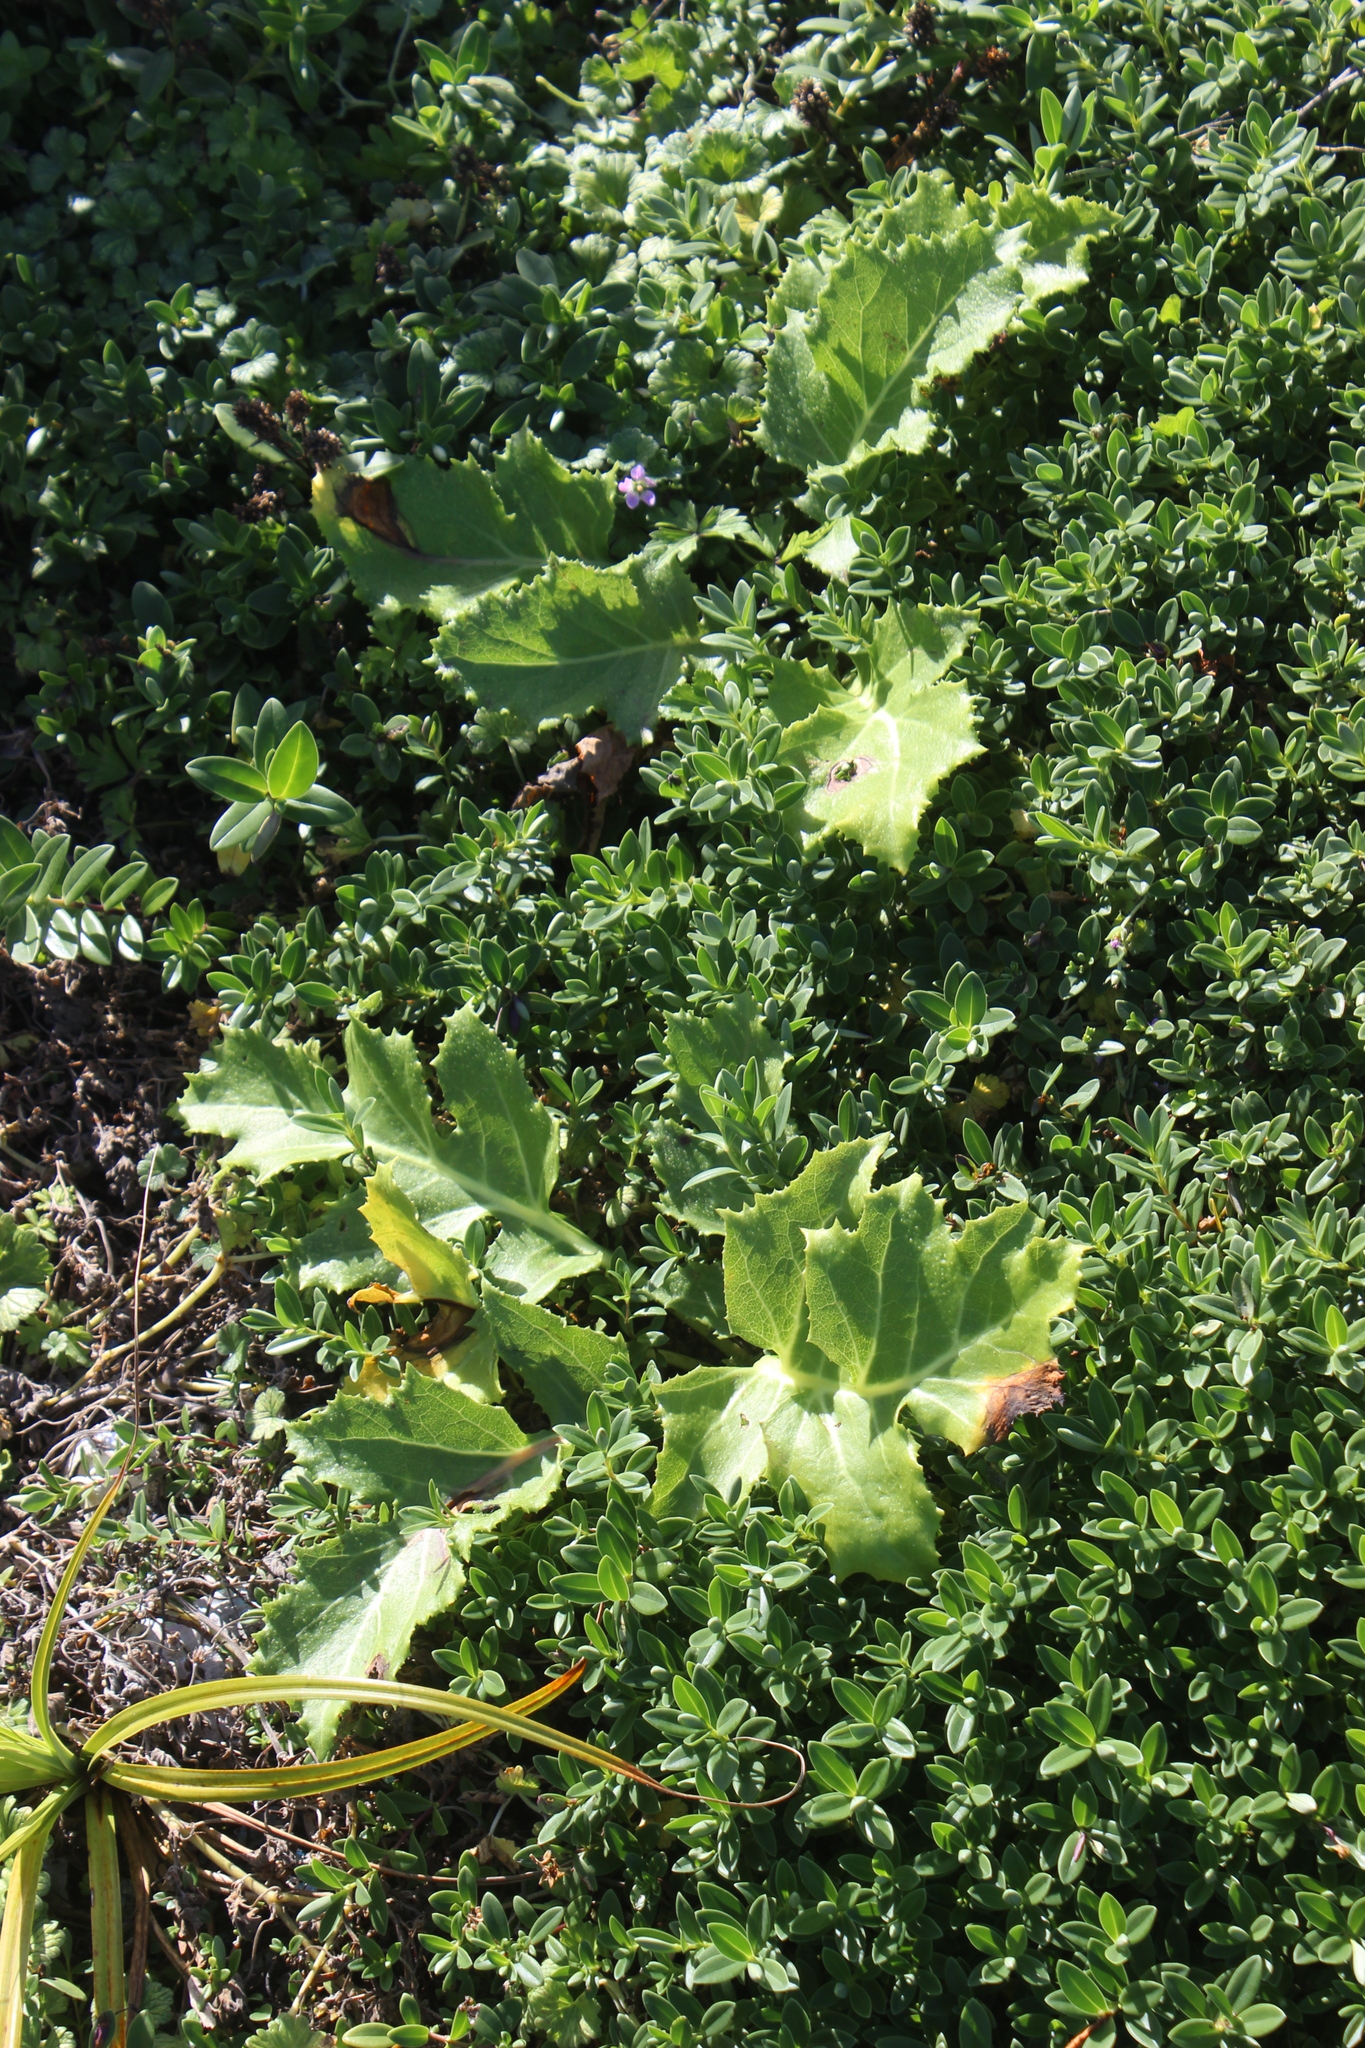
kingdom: Plantae
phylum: Tracheophyta
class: Magnoliopsida
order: Asterales
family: Asteraceae
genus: Sonchus
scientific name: Sonchus grandifolius
